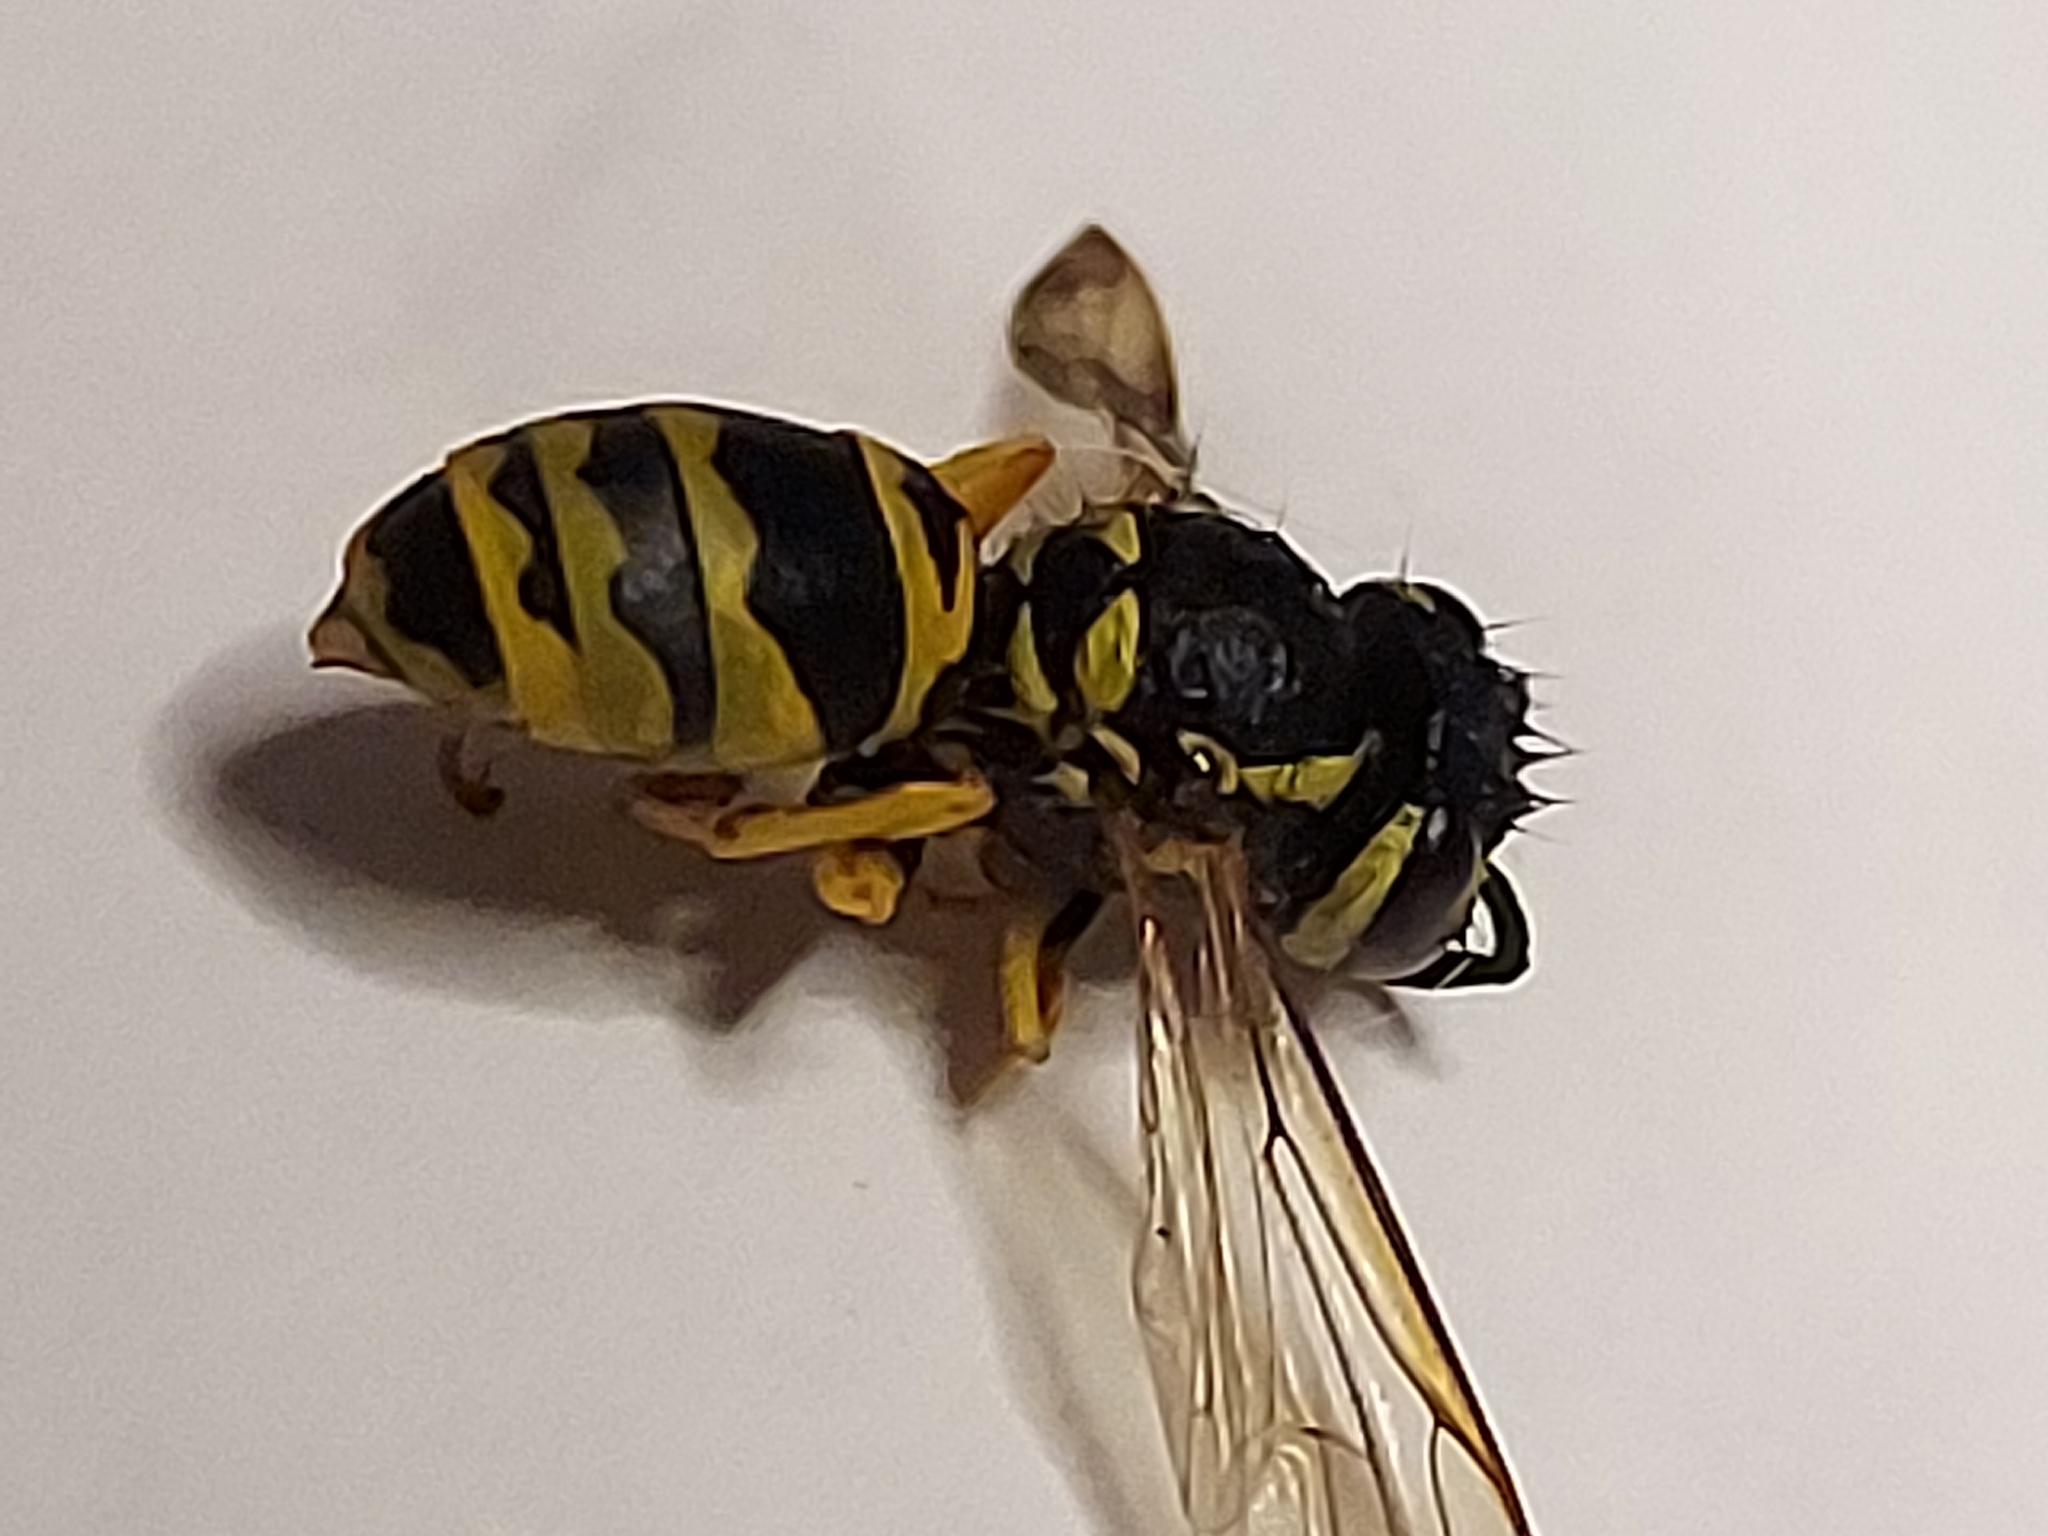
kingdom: Animalia
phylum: Arthropoda
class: Insecta
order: Hymenoptera
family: Vespidae
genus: Vespula
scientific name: Vespula maculifrons
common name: Eastern yellowjacket
